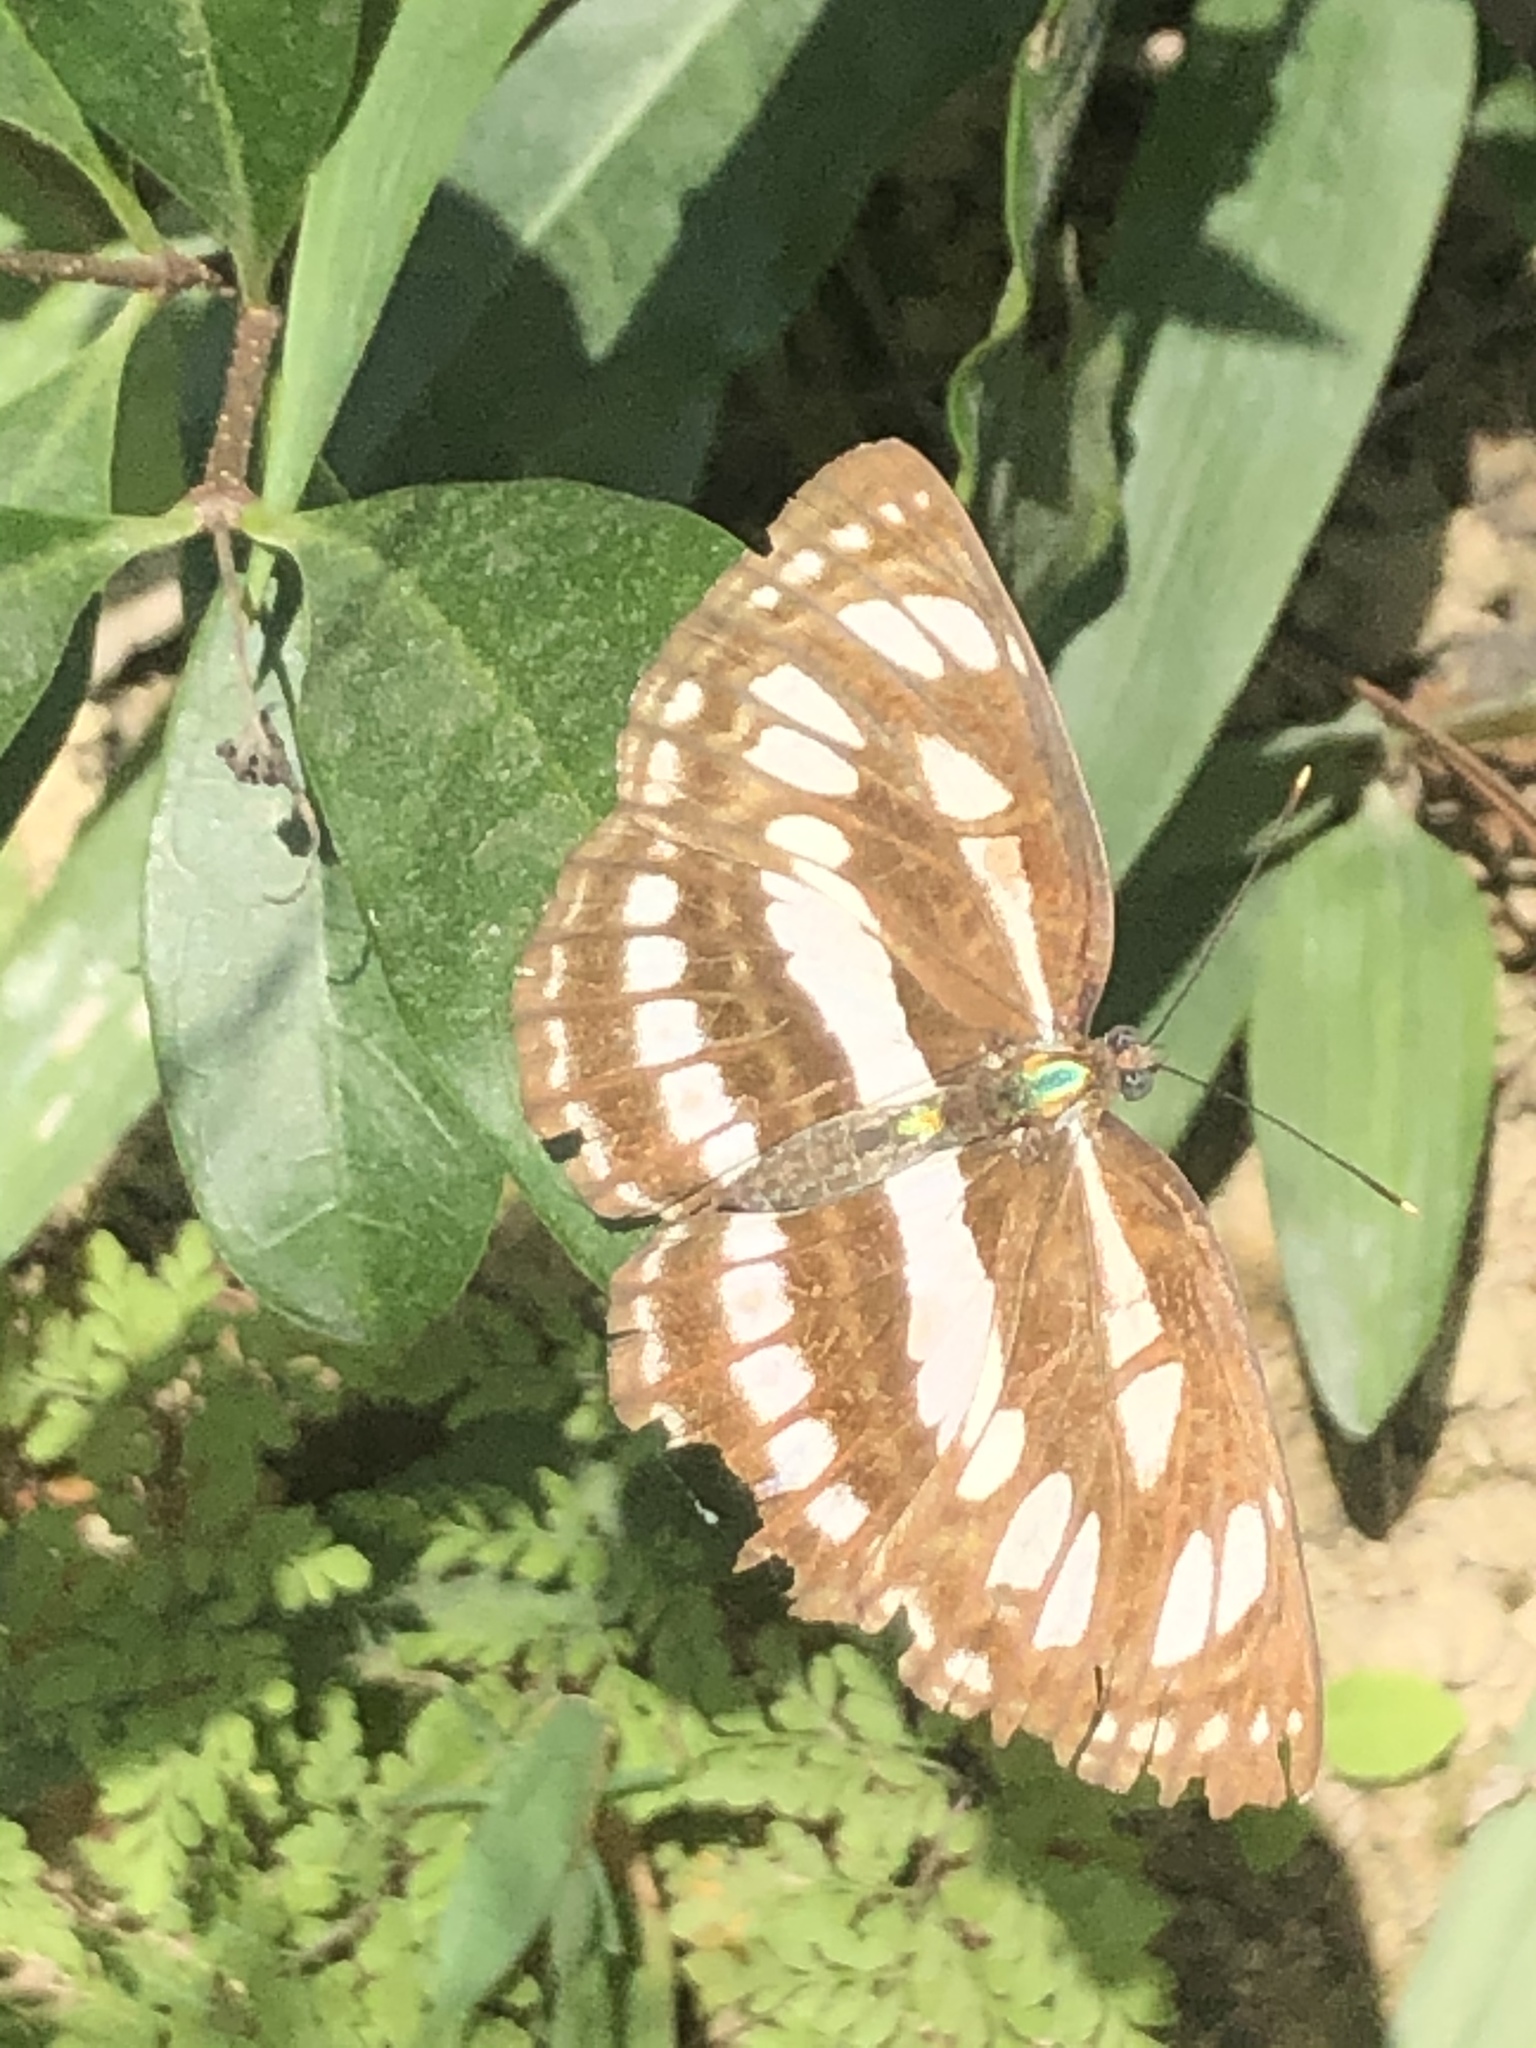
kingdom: Animalia
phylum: Arthropoda
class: Insecta
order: Lepidoptera
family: Nymphalidae
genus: Neptis
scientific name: Neptis hylas
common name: Common sailer
